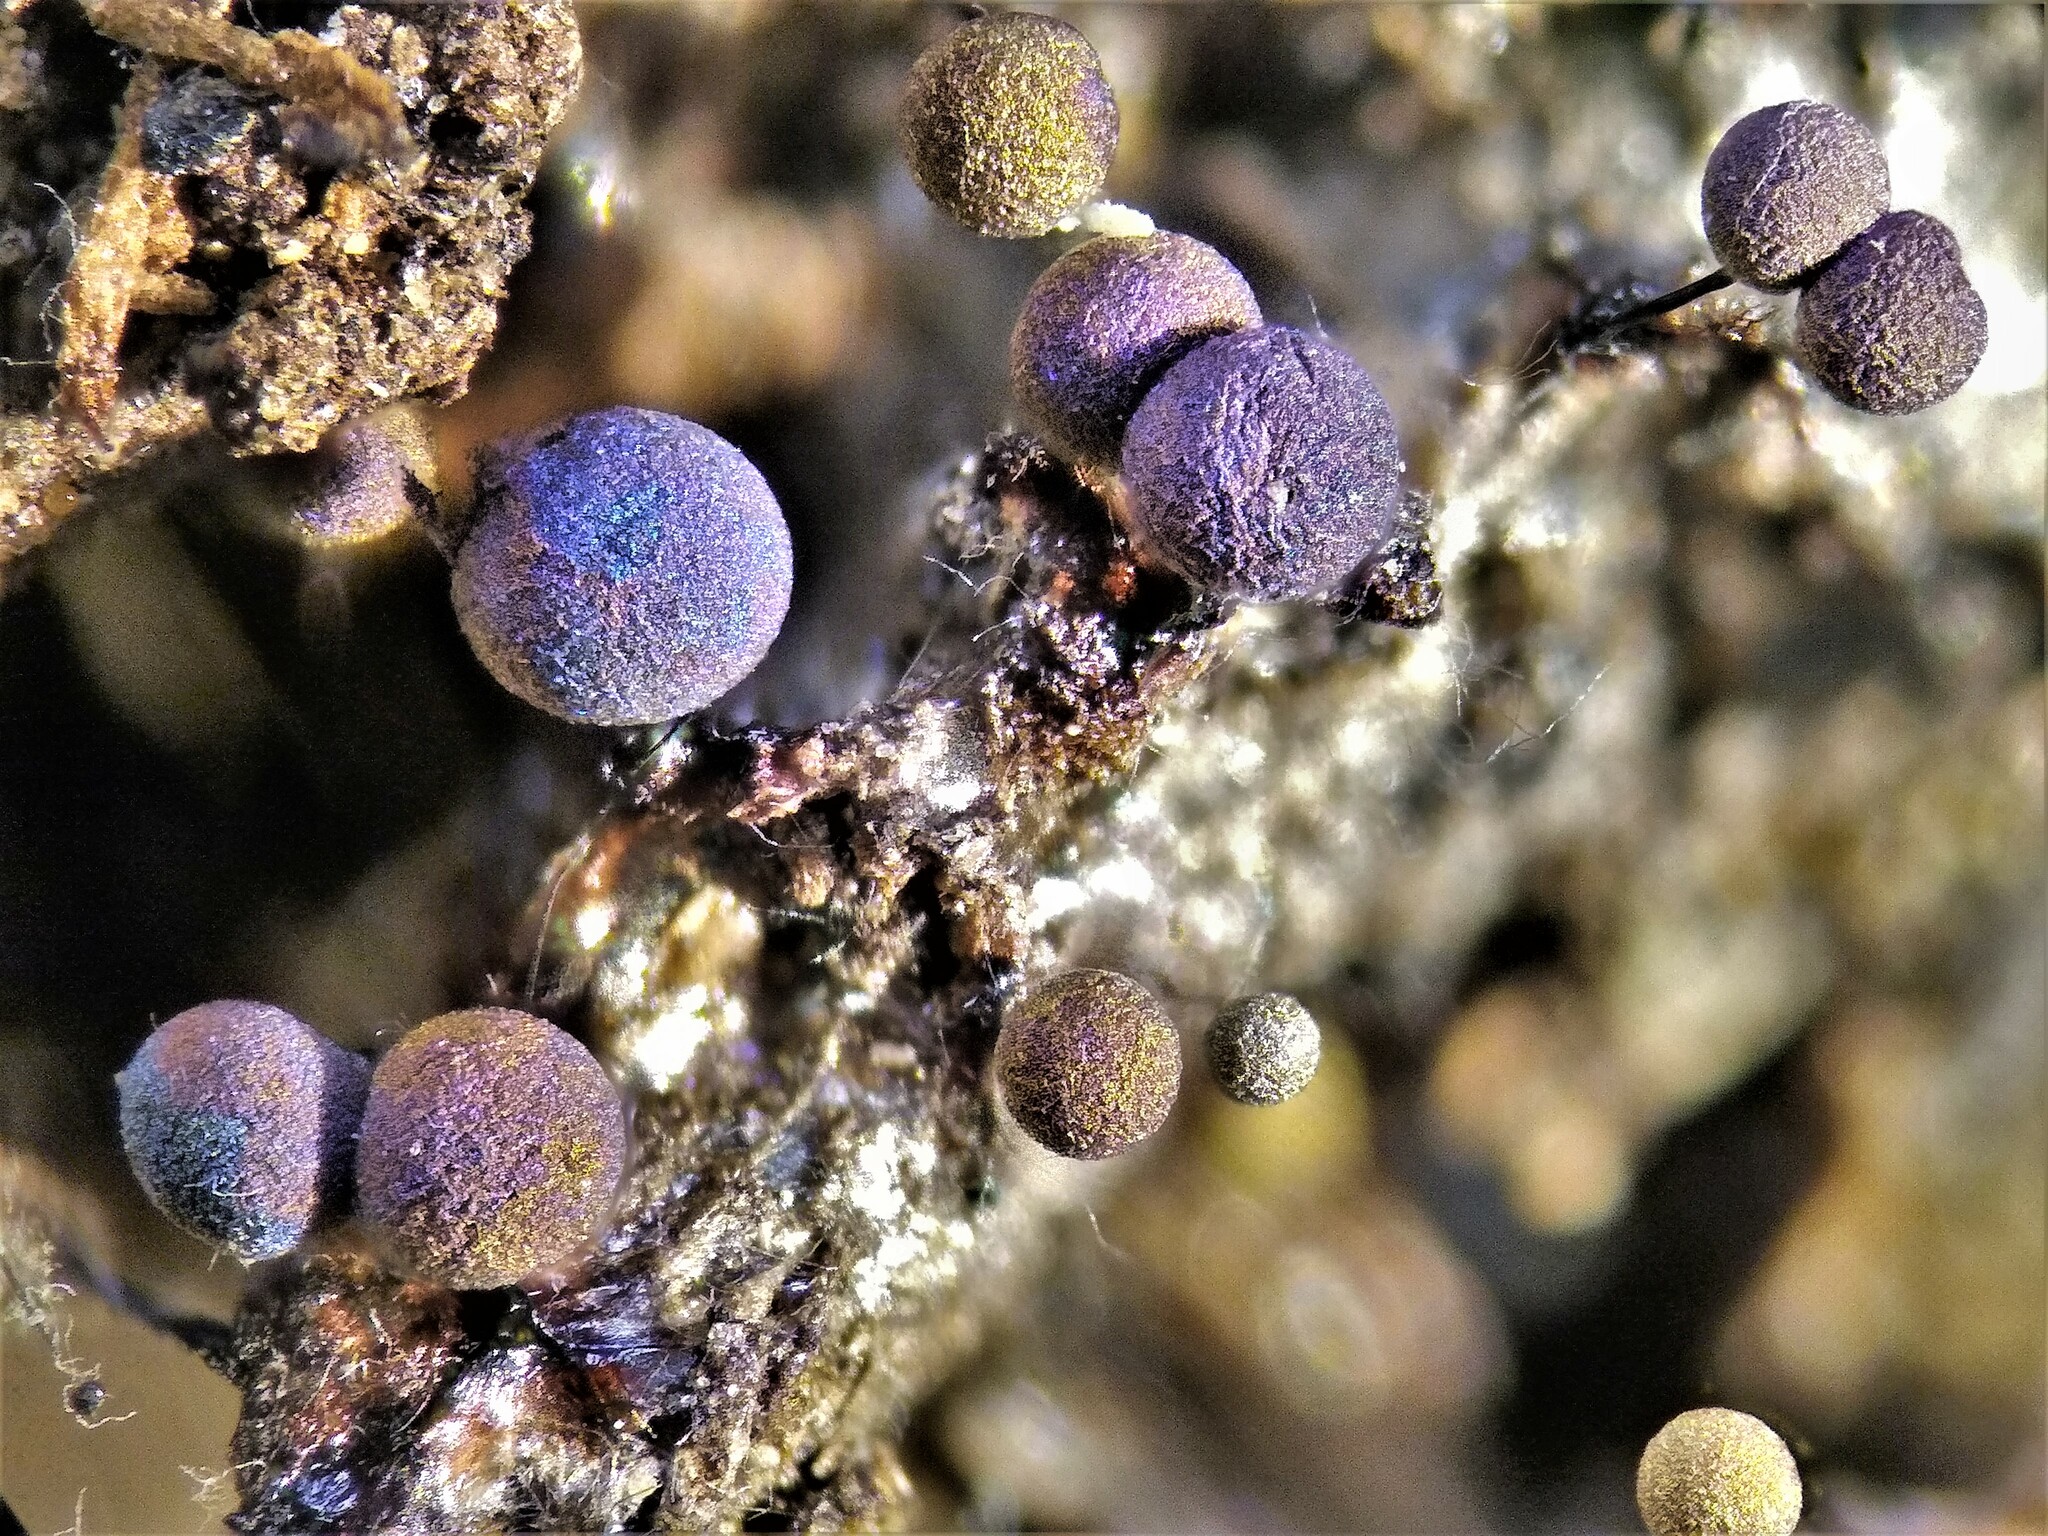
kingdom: Protozoa
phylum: Mycetozoa
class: Myxomycetes
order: Stemonitidales
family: Stemonitidaceae
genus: Lamproderma
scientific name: Lamproderma scintillans
